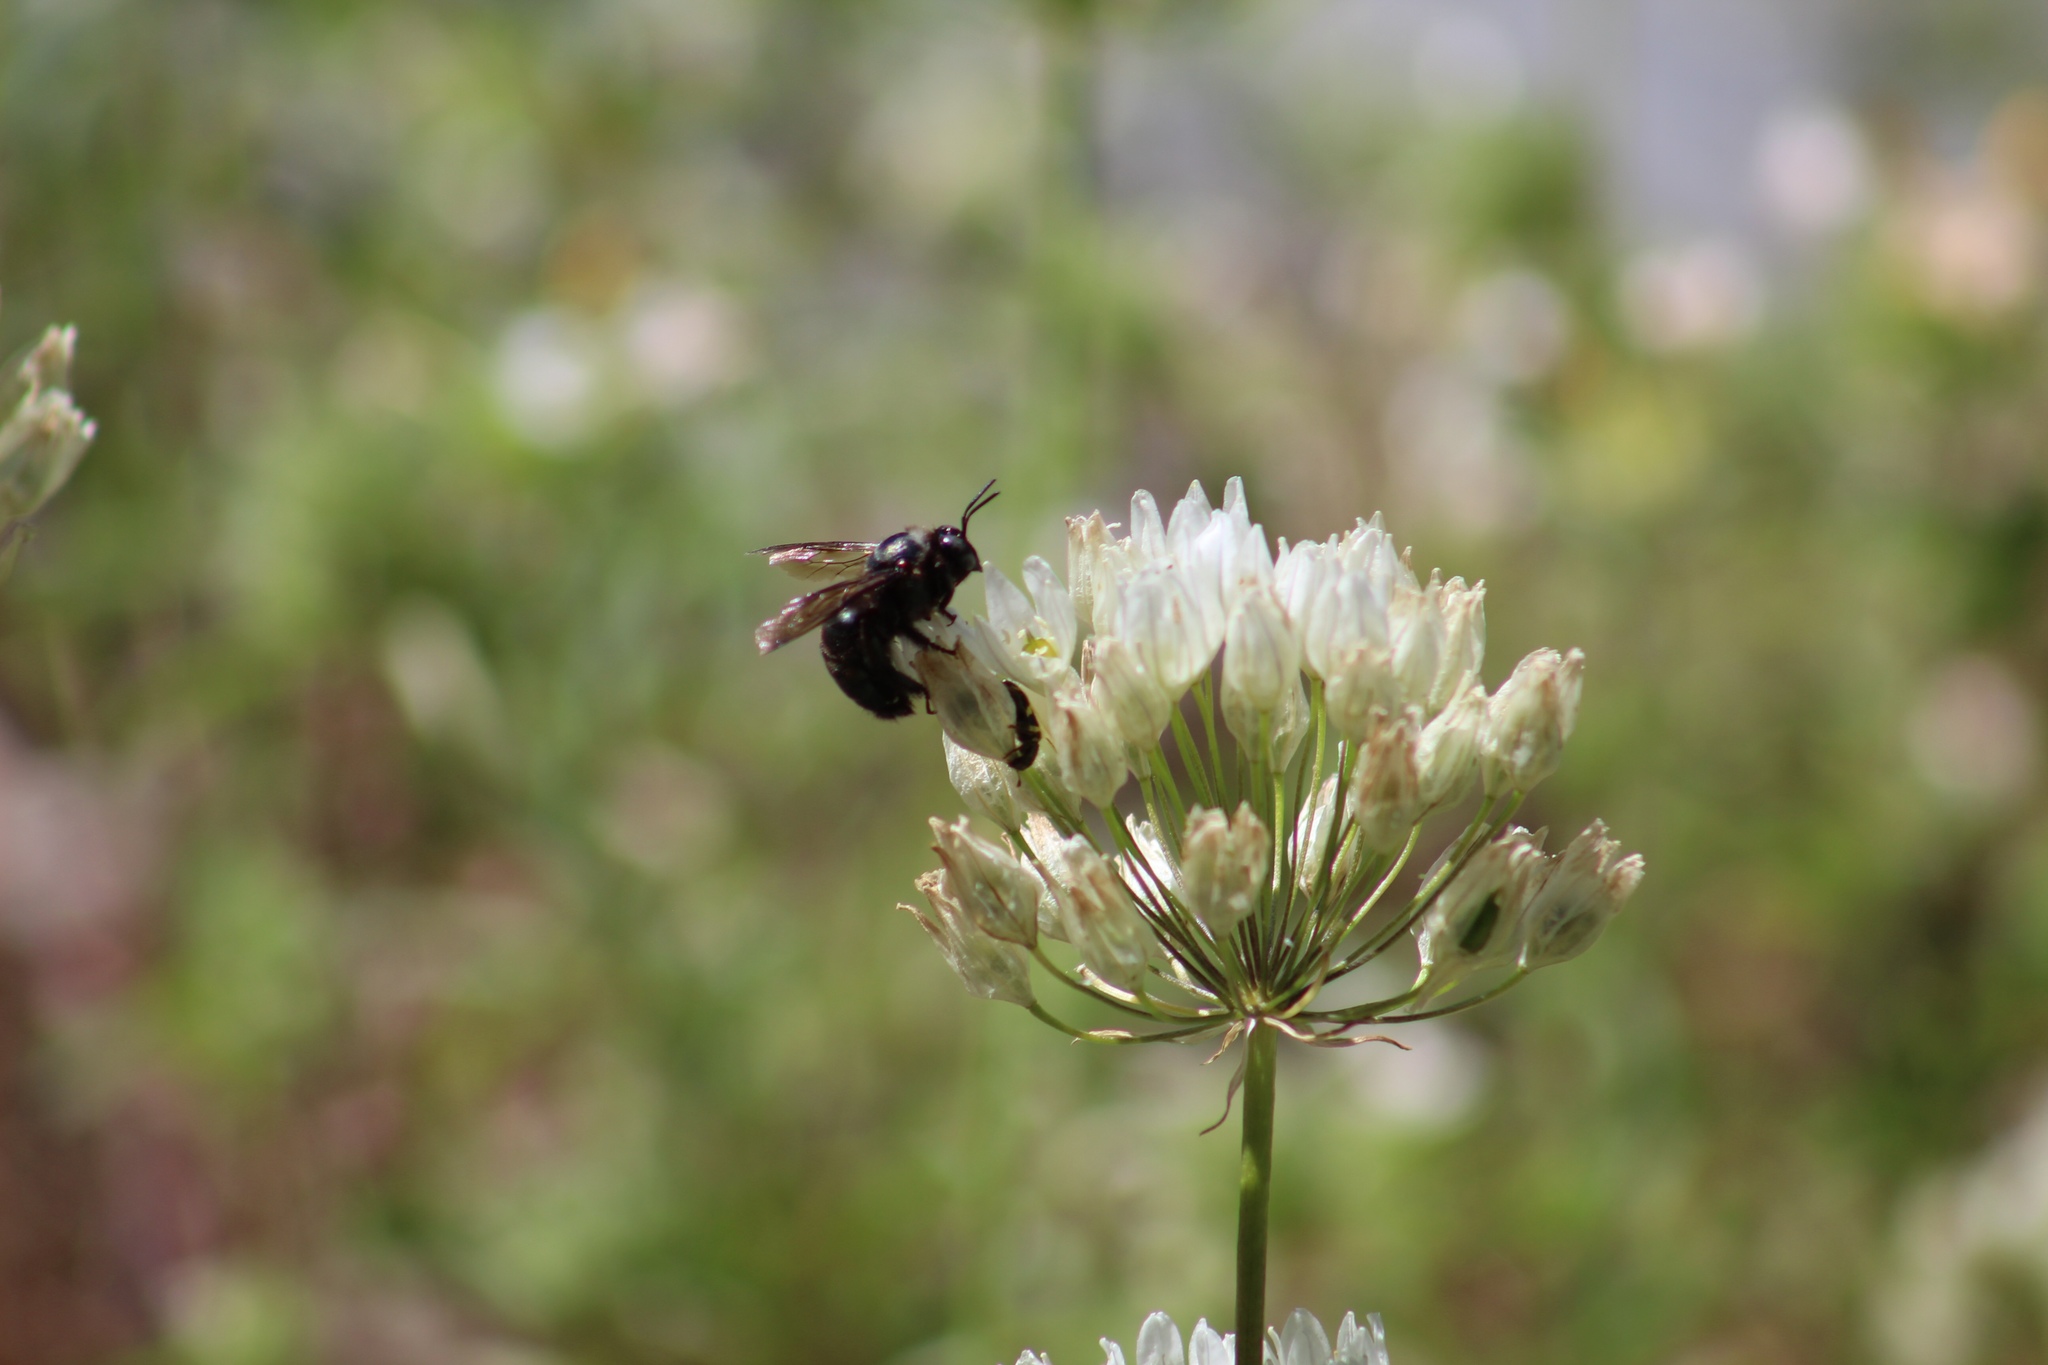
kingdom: Animalia
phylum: Arthropoda
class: Insecta
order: Hymenoptera
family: Apidae
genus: Xylocopa
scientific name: Xylocopa californica
